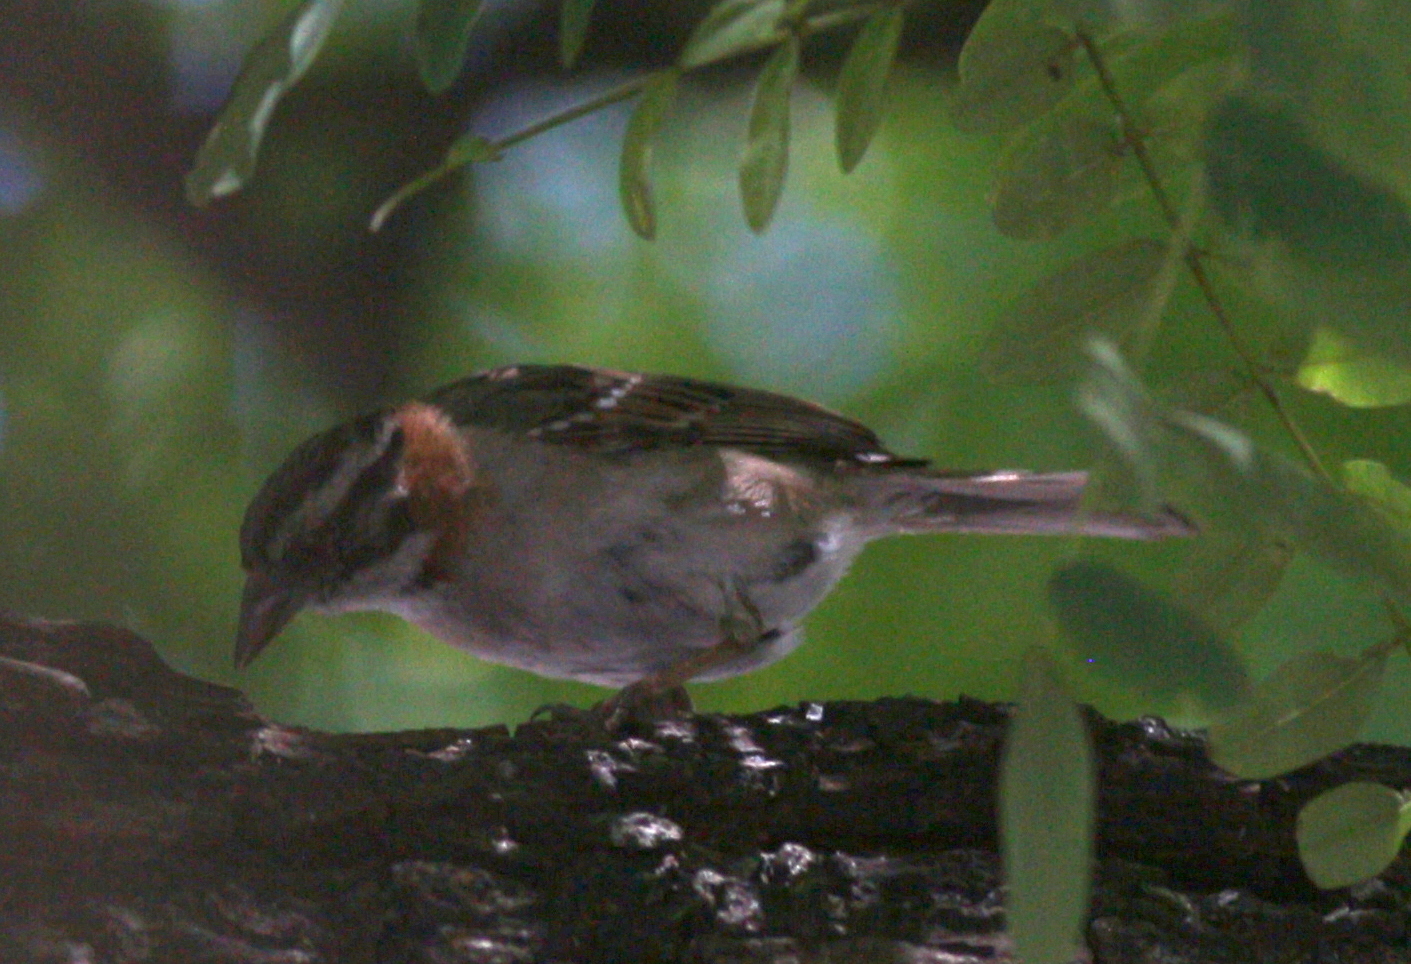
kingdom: Animalia
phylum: Chordata
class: Aves
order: Passeriformes
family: Passerellidae
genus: Zonotrichia
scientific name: Zonotrichia capensis
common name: Rufous-collared sparrow
